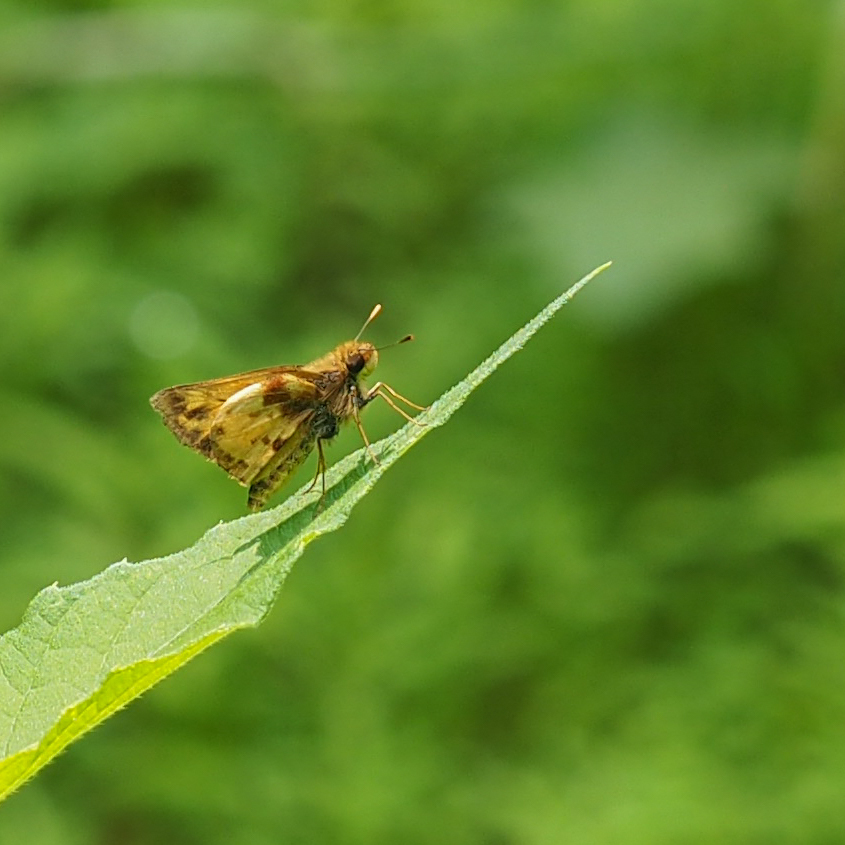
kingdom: Animalia
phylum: Arthropoda
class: Insecta
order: Lepidoptera
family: Hesperiidae
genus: Lon
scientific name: Lon zabulon
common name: Zabulon skipper
